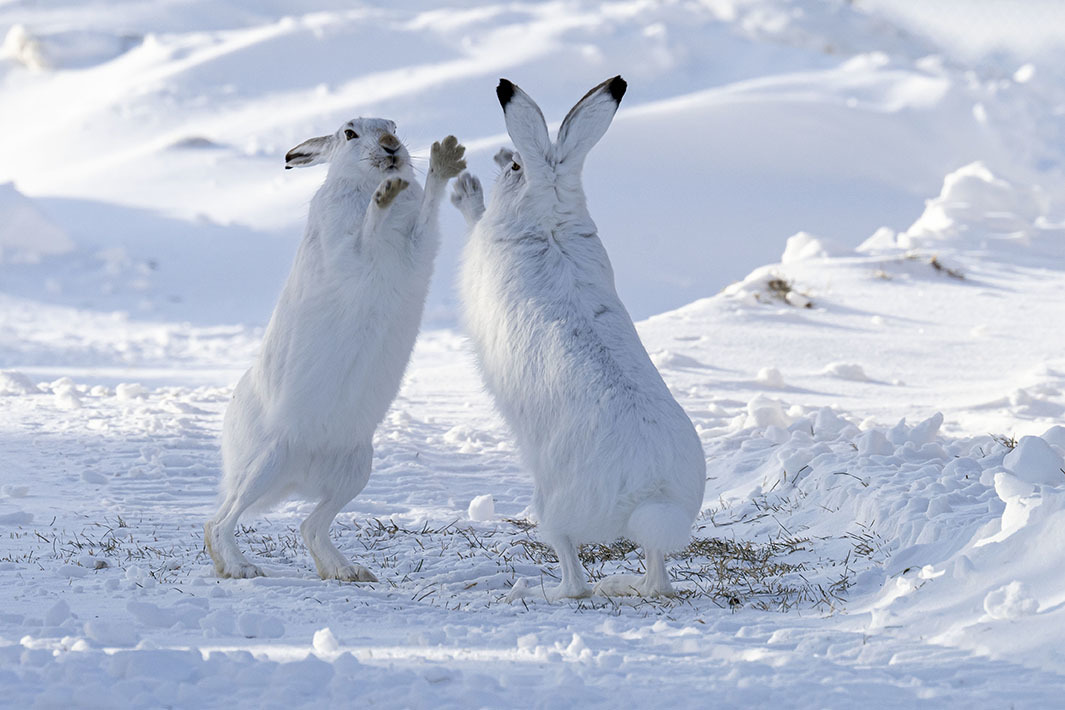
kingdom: Animalia
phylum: Chordata
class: Mammalia
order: Lagomorpha
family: Leporidae
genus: Lepus
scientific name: Lepus townsendii
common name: White-tailed jackrabbit
